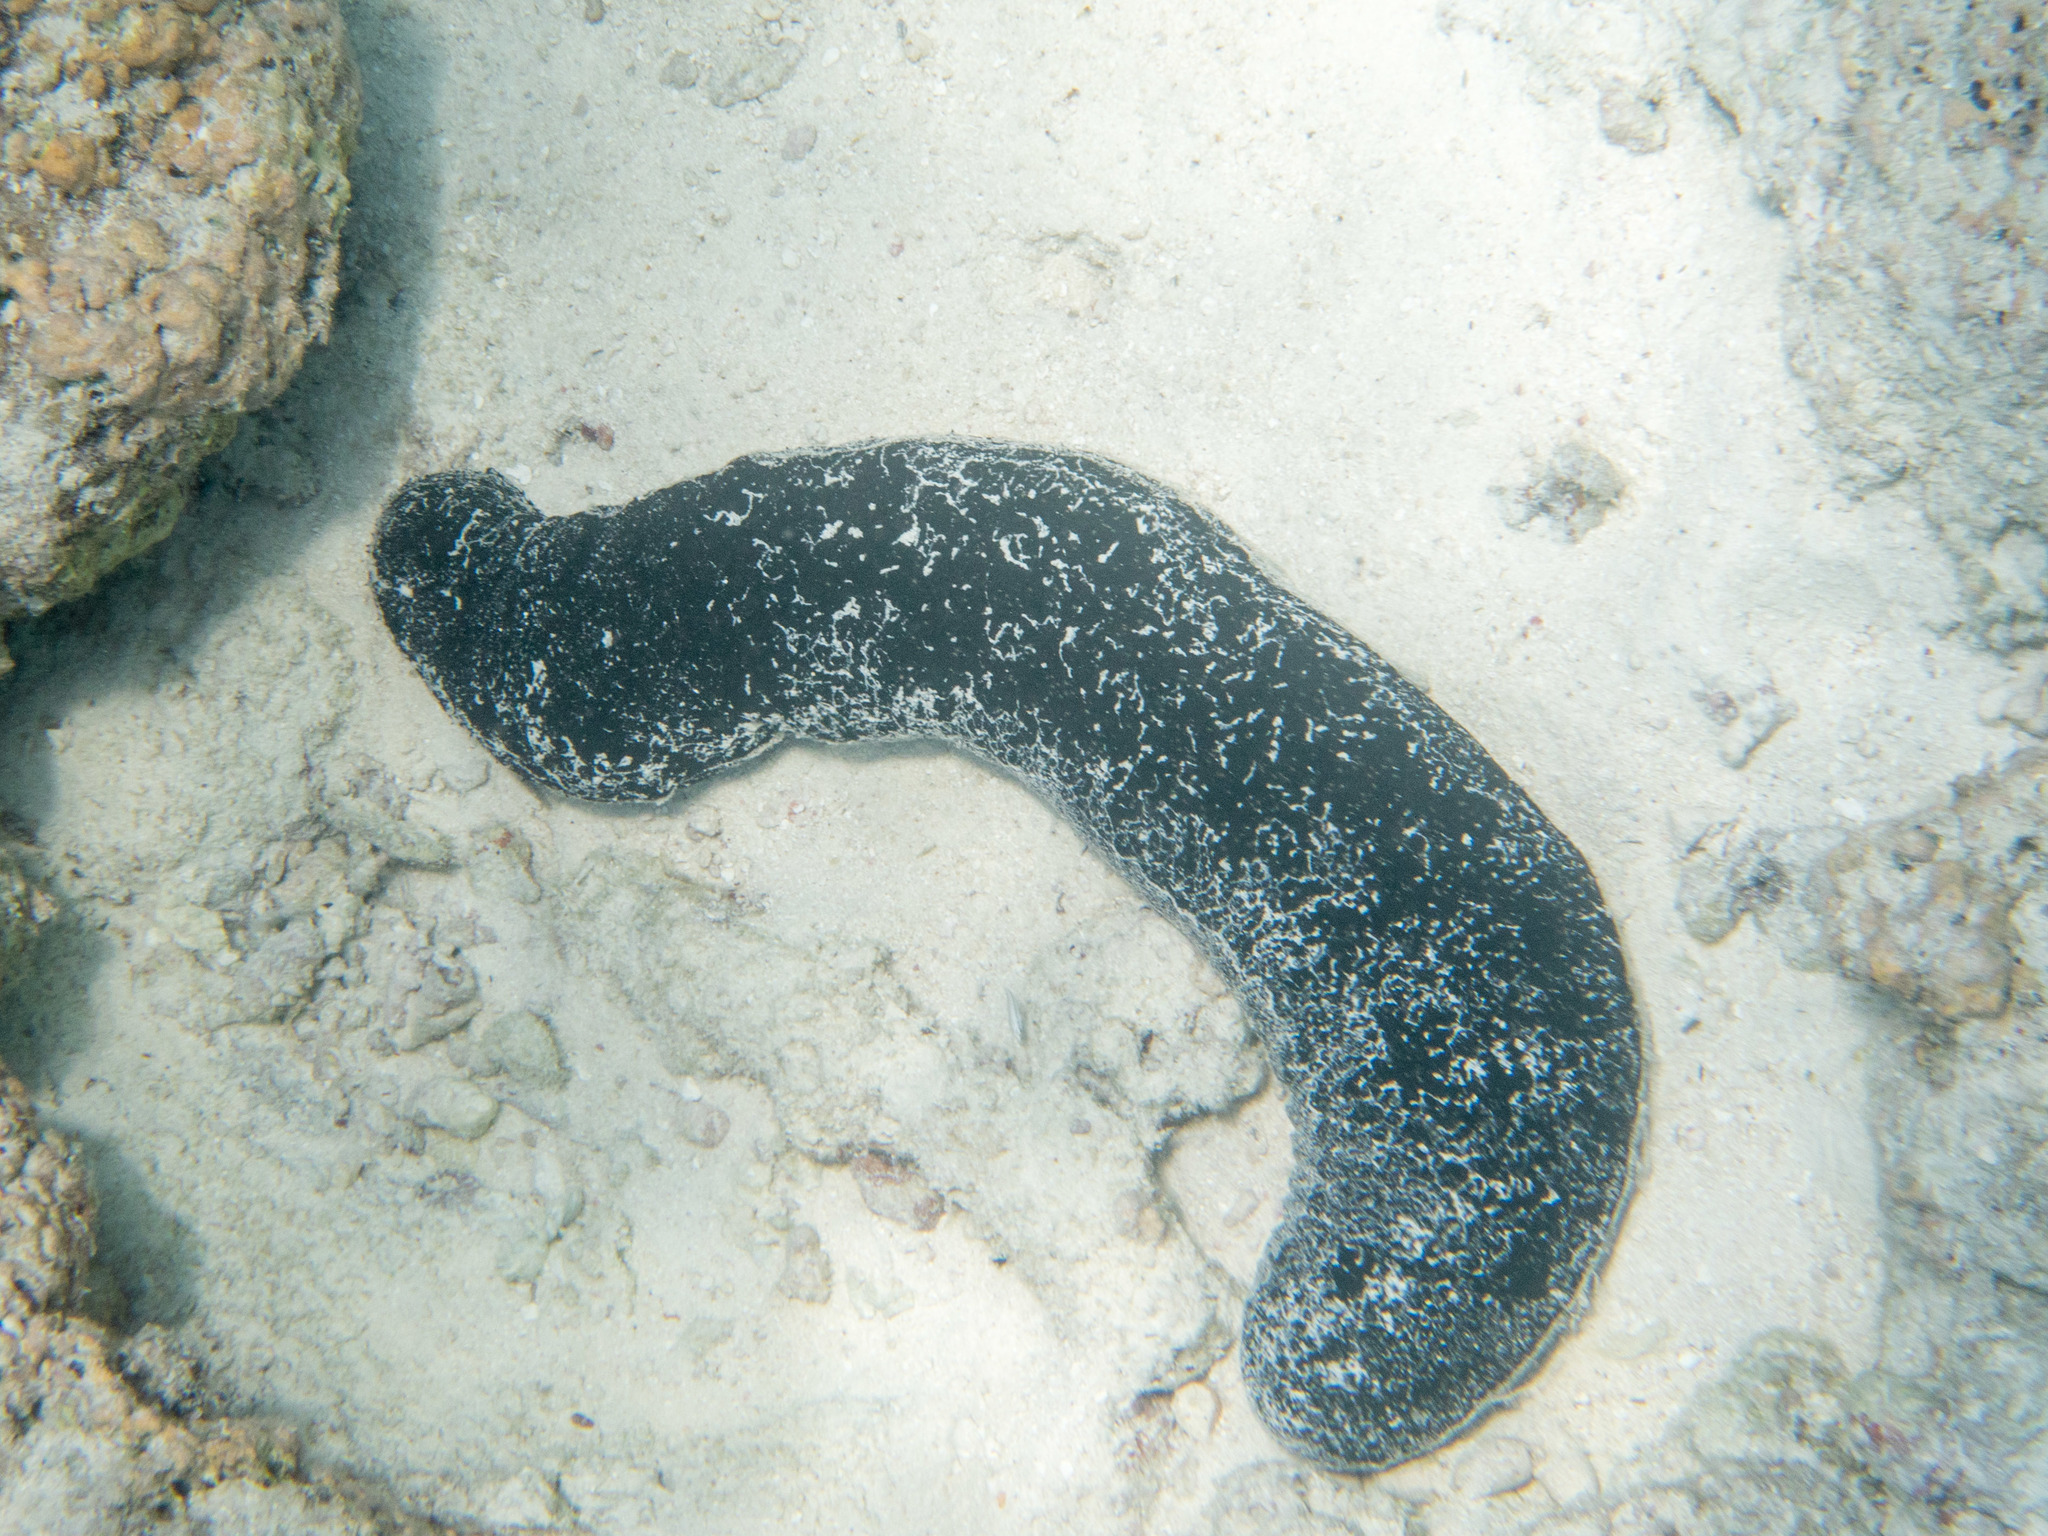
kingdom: Animalia
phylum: Echinodermata
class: Holothuroidea
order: Holothuriida
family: Holothuriidae
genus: Holothuria
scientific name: Holothuria atra
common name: Lollyfish
